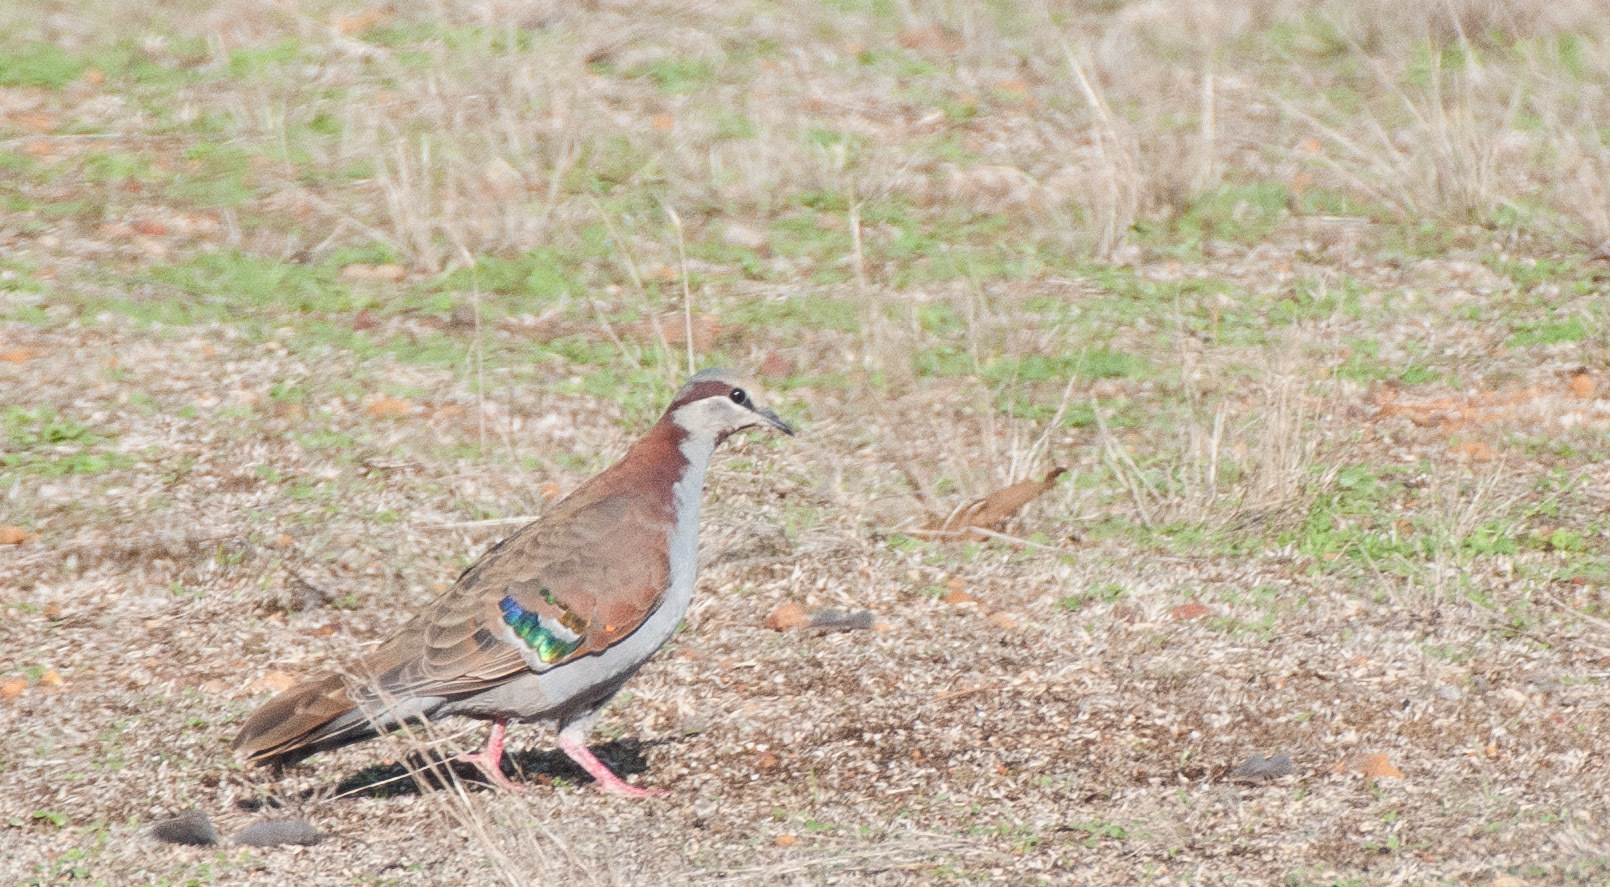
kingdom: Animalia
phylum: Chordata
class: Aves
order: Columbiformes
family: Columbidae
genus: Phaps
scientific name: Phaps elegans
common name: Brush bronzewing
